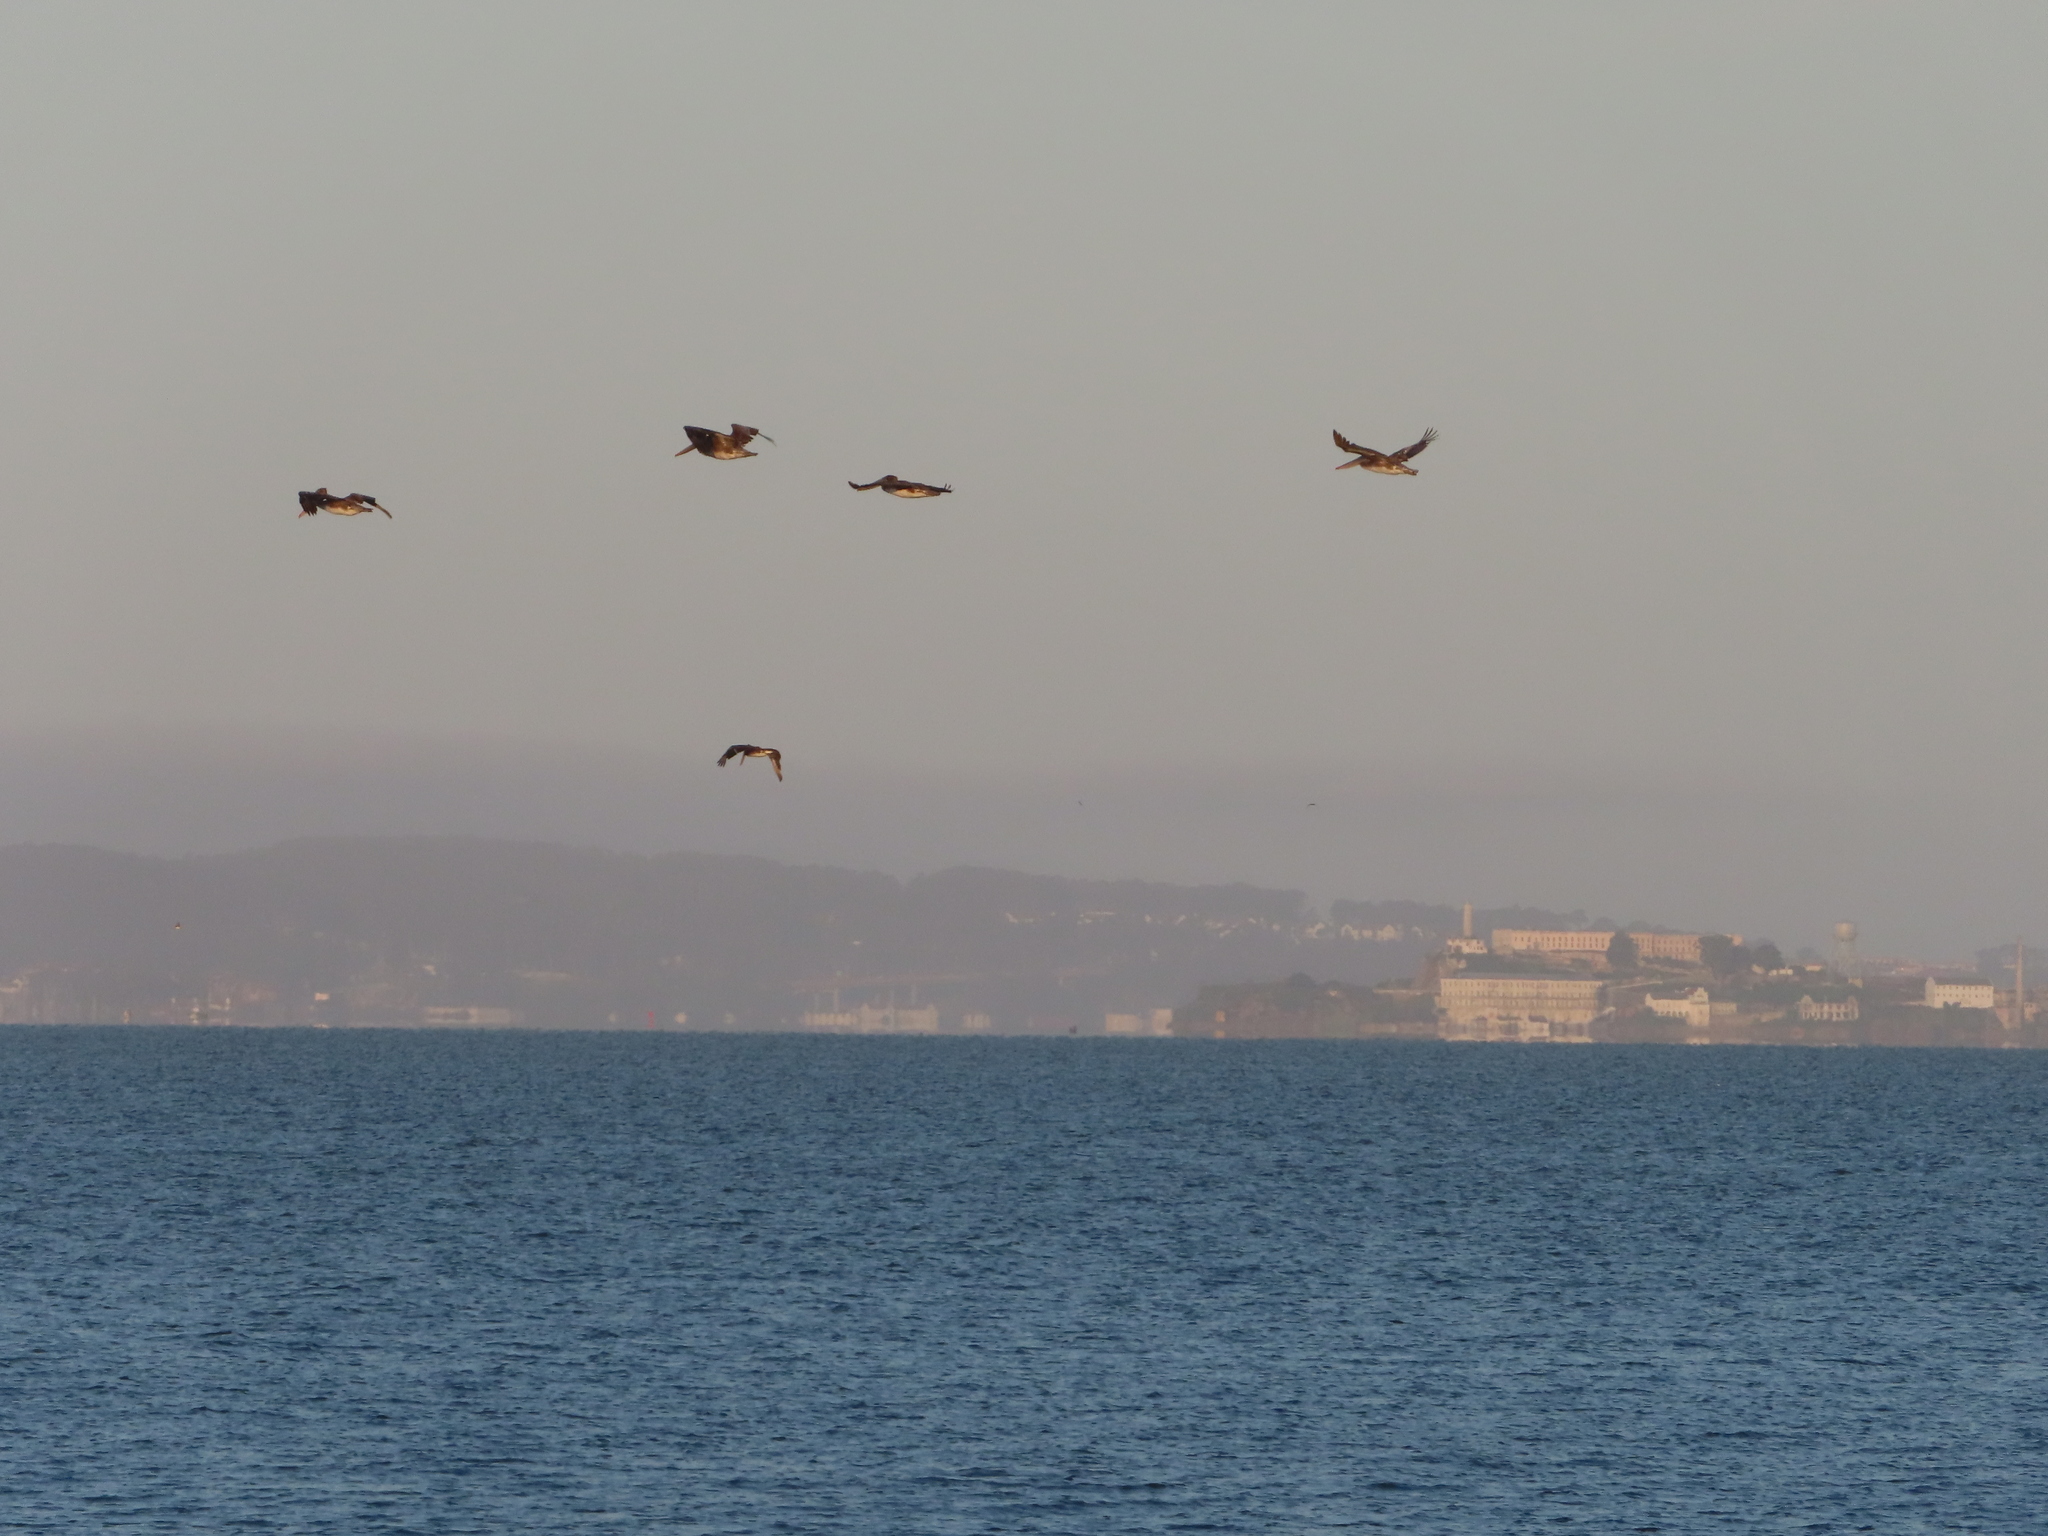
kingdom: Animalia
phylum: Chordata
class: Aves
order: Pelecaniformes
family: Pelecanidae
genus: Pelecanus
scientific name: Pelecanus occidentalis
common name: Brown pelican
